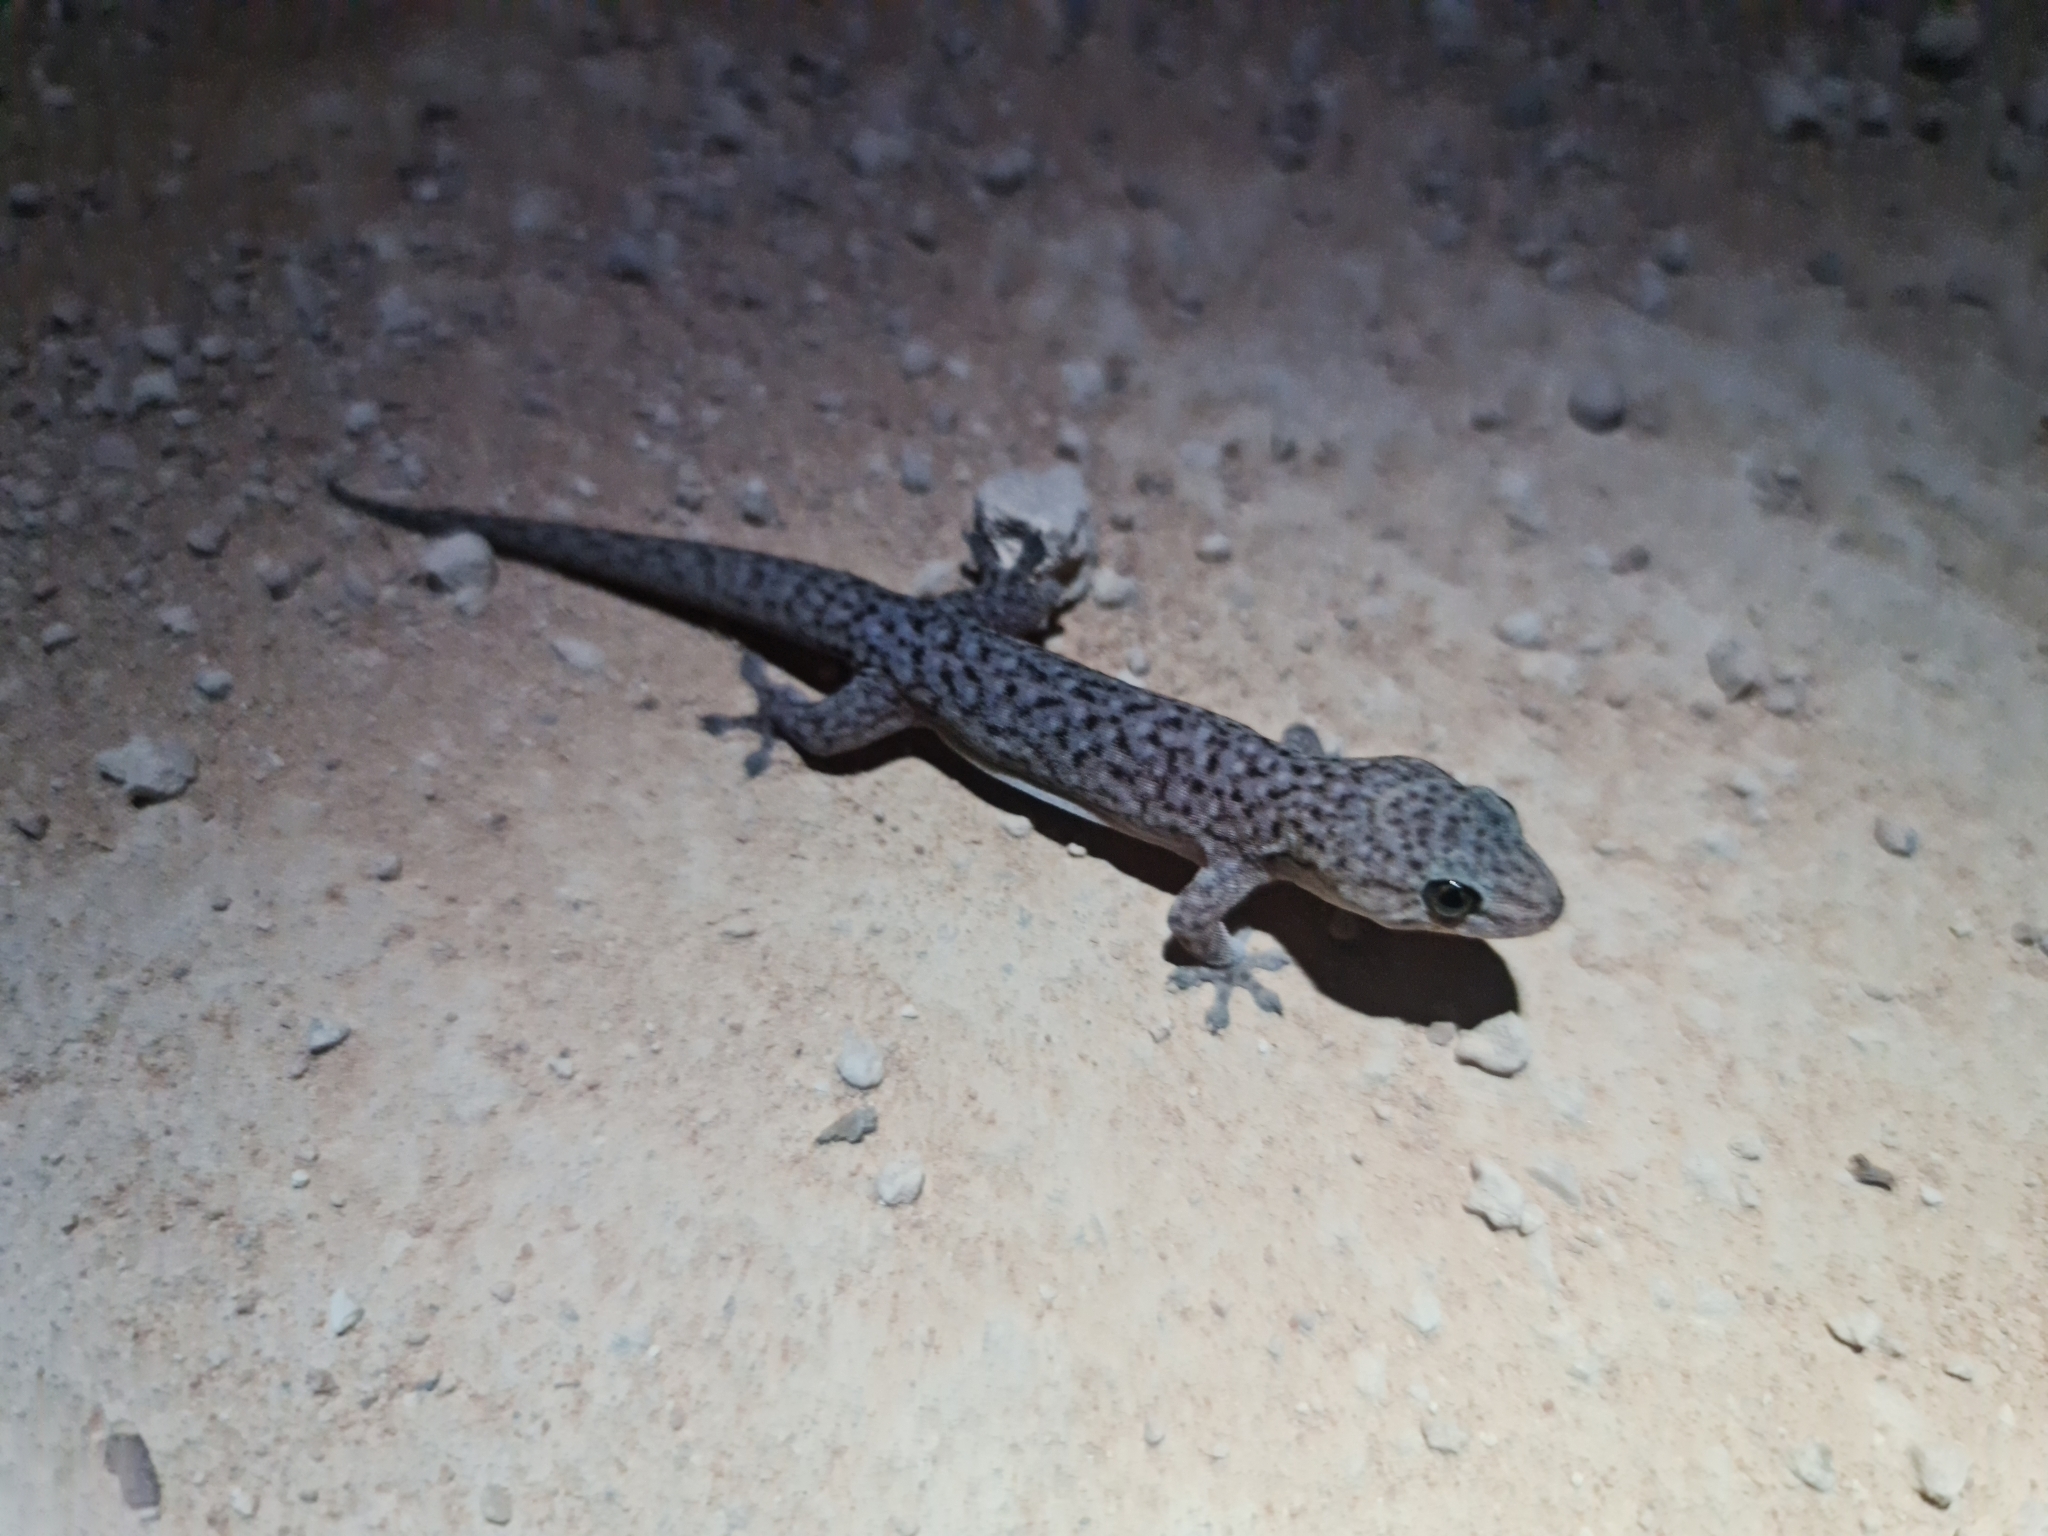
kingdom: Animalia
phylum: Chordata
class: Squamata
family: Gekkonidae
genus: Gehyra
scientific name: Gehyra lazelli
